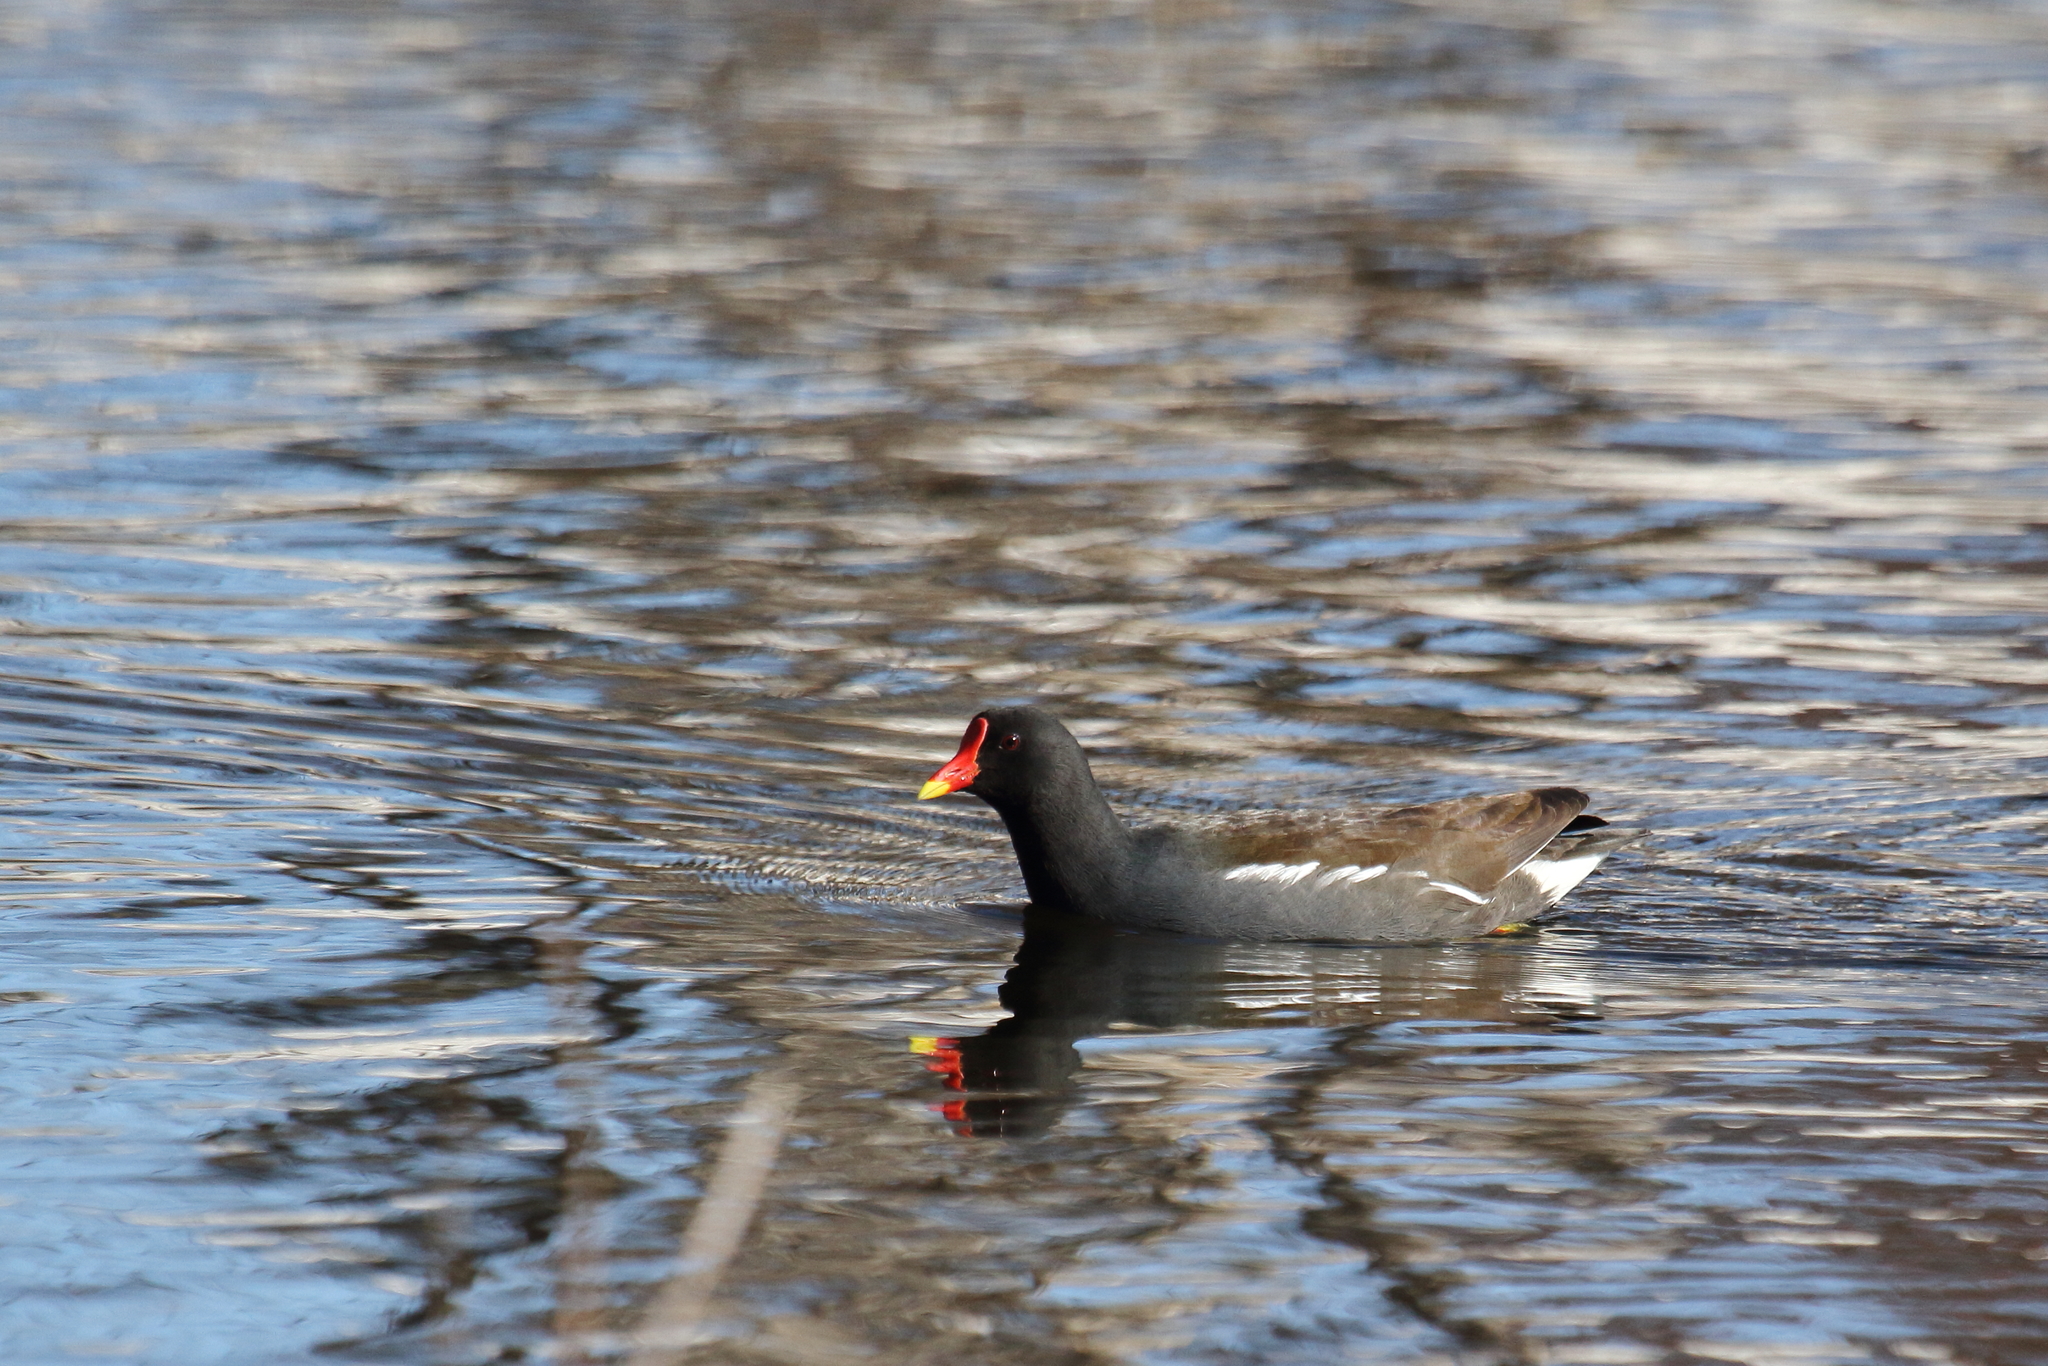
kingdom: Animalia
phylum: Chordata
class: Aves
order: Gruiformes
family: Rallidae
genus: Gallinula
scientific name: Gallinula chloropus
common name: Common moorhen
